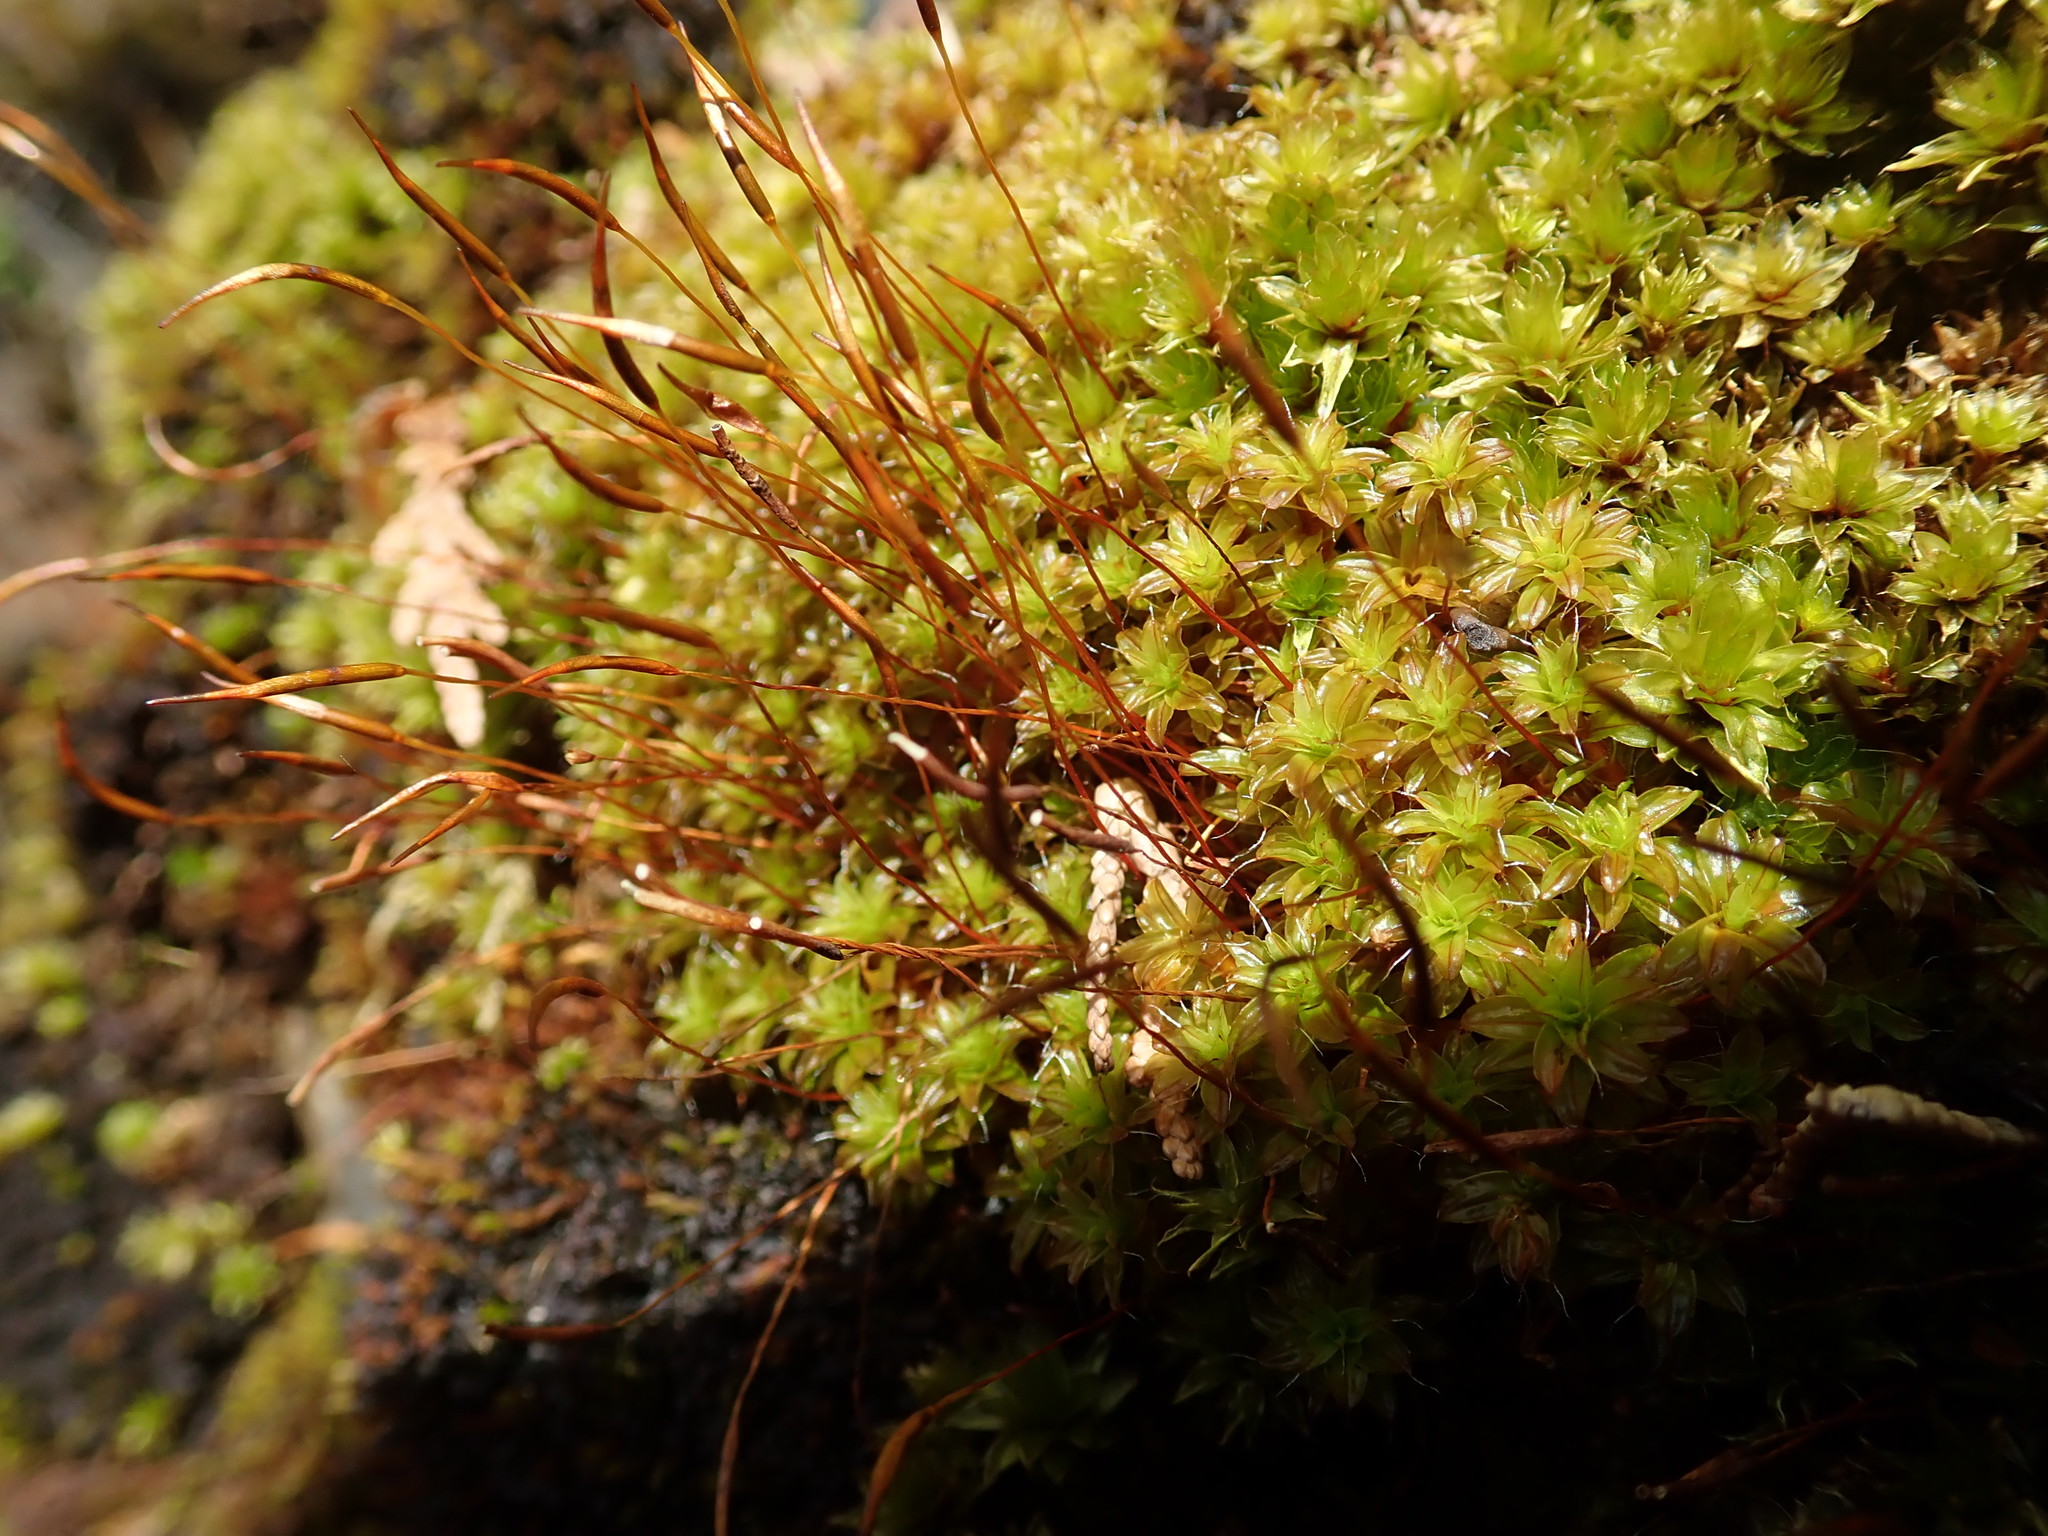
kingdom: Plantae
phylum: Bryophyta
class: Bryopsida
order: Pottiales
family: Pottiaceae
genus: Syntrichia
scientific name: Syntrichia princeps
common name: Brown screw-moss
